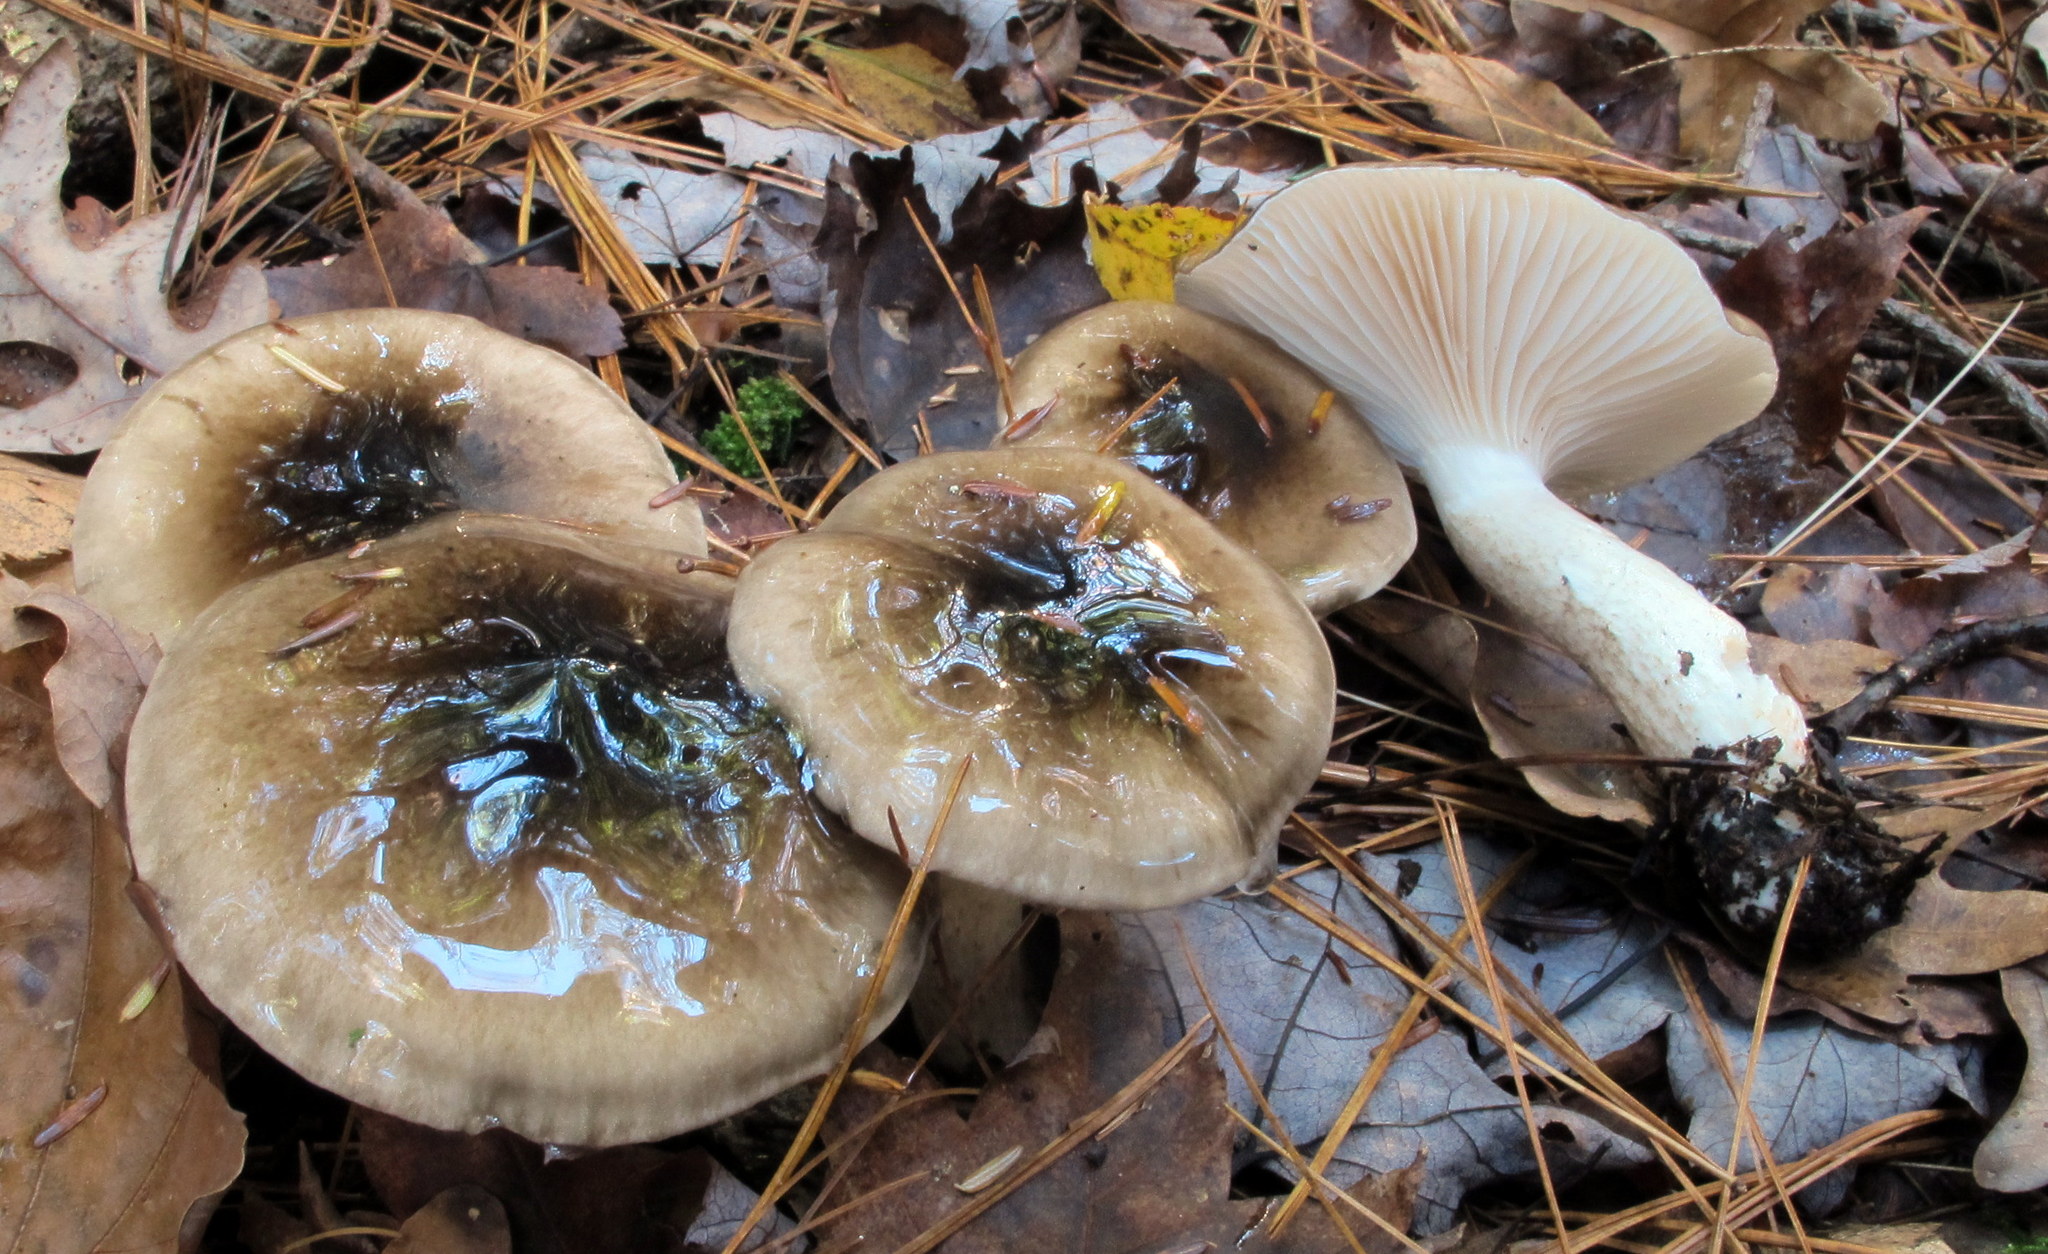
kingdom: Fungi
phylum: Basidiomycota
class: Agaricomycetes
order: Agaricales
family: Hygrophoraceae
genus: Hygrophorus
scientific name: Hygrophorus fuligineus
